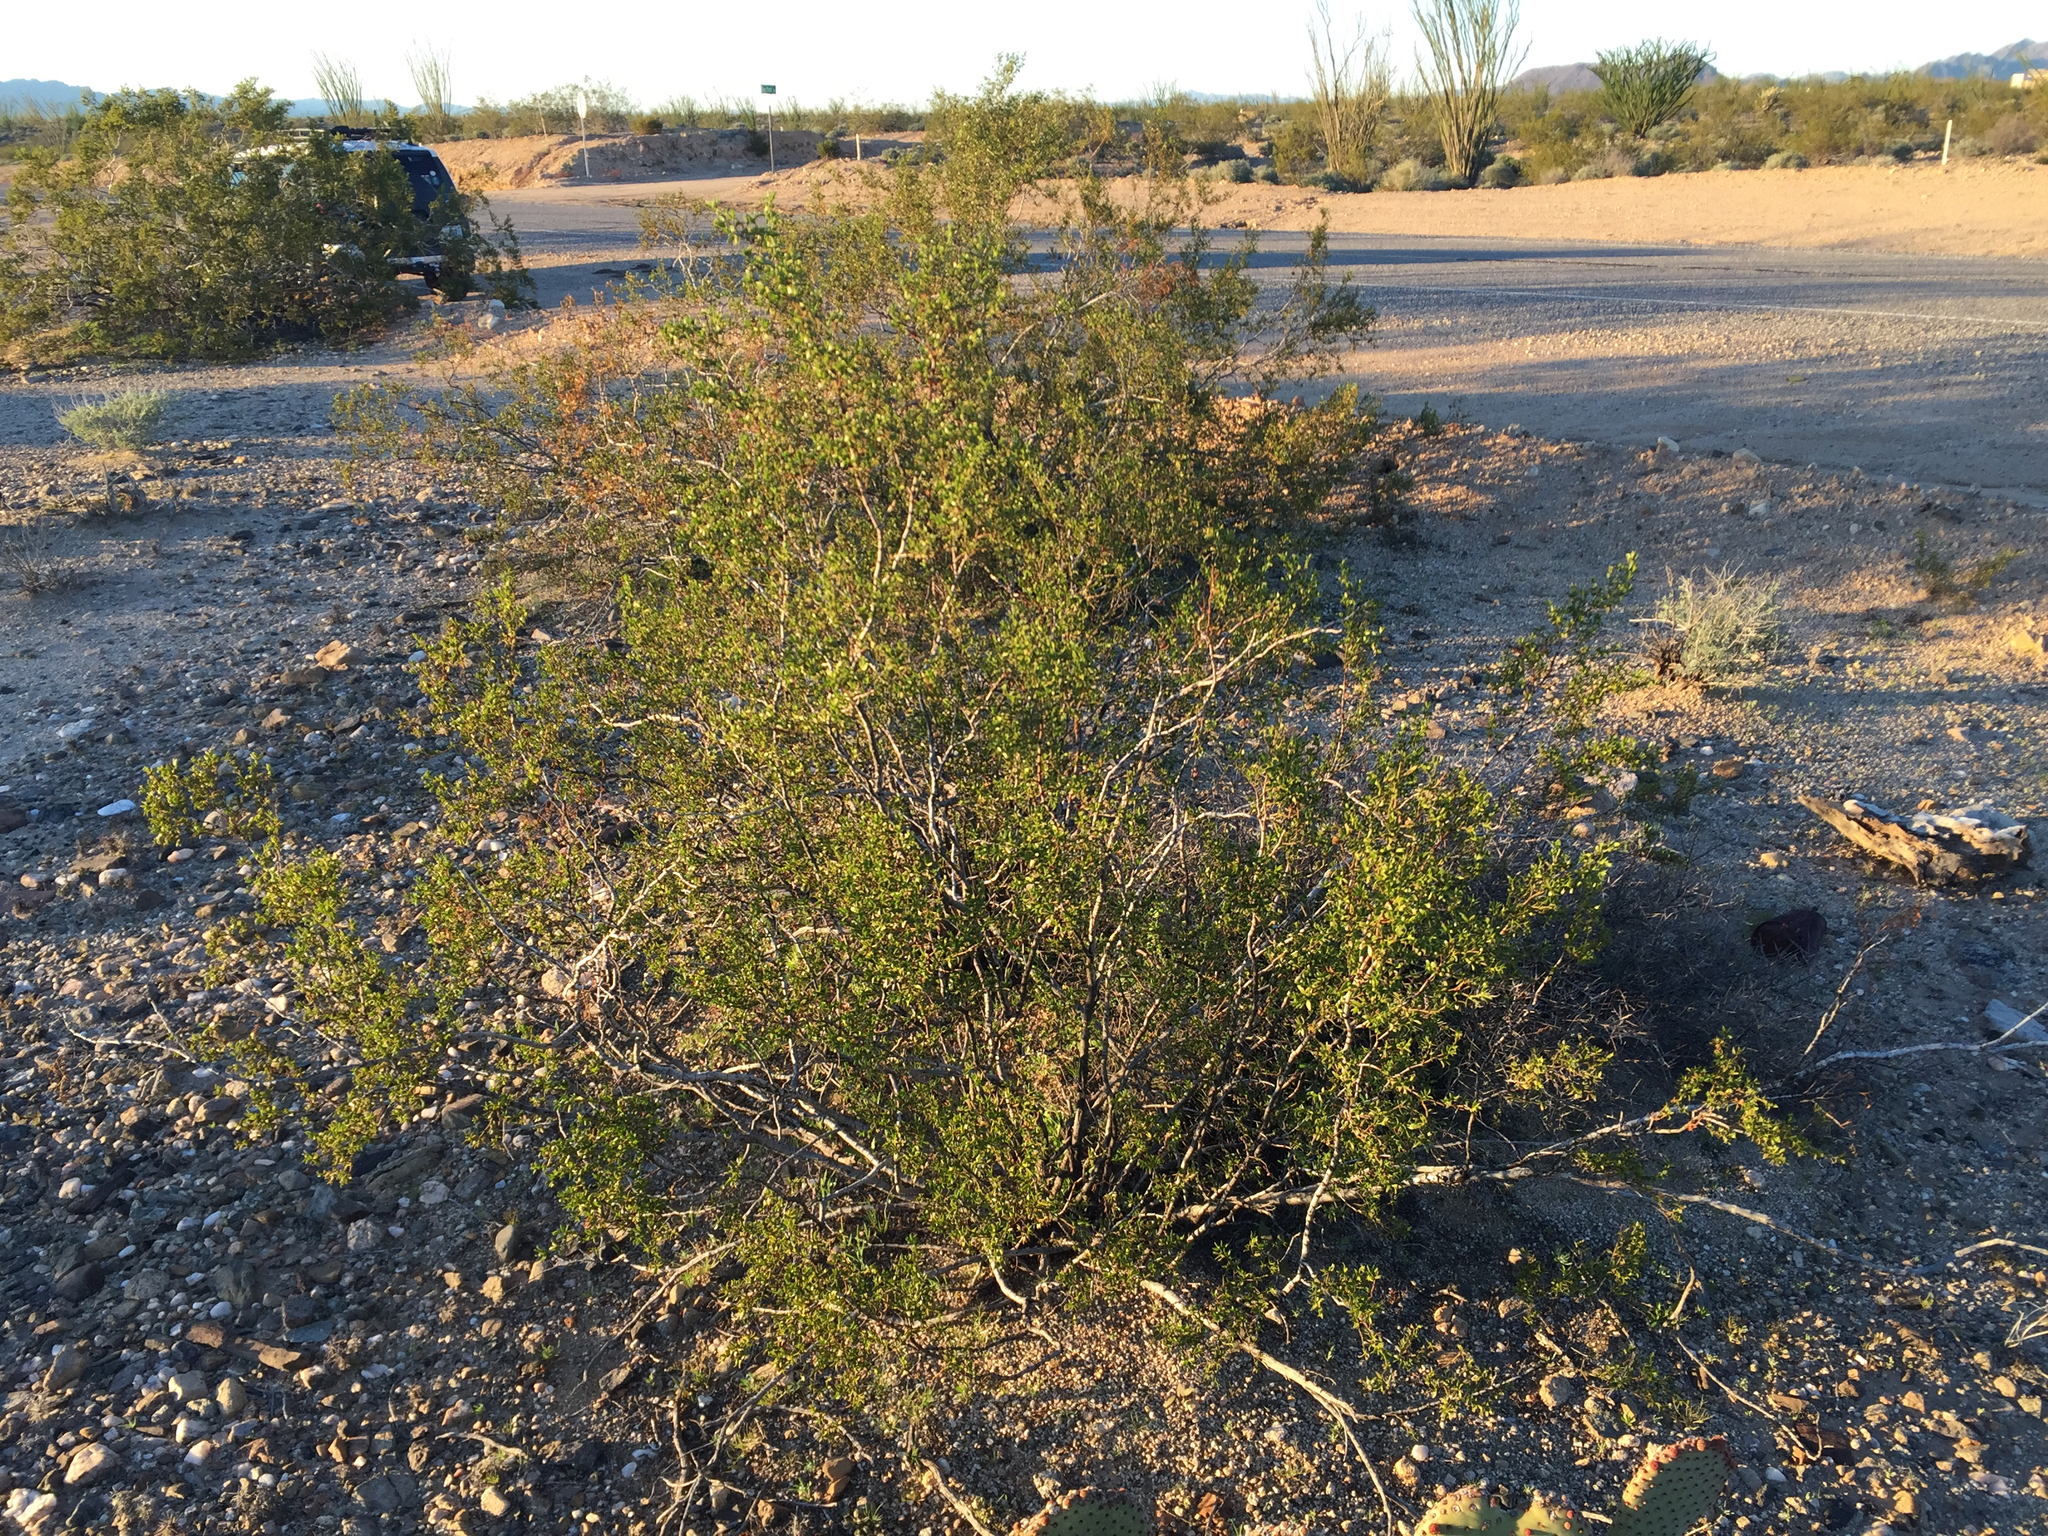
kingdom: Plantae
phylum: Tracheophyta
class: Magnoliopsida
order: Zygophyllales
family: Zygophyllaceae
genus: Larrea
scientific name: Larrea tridentata
